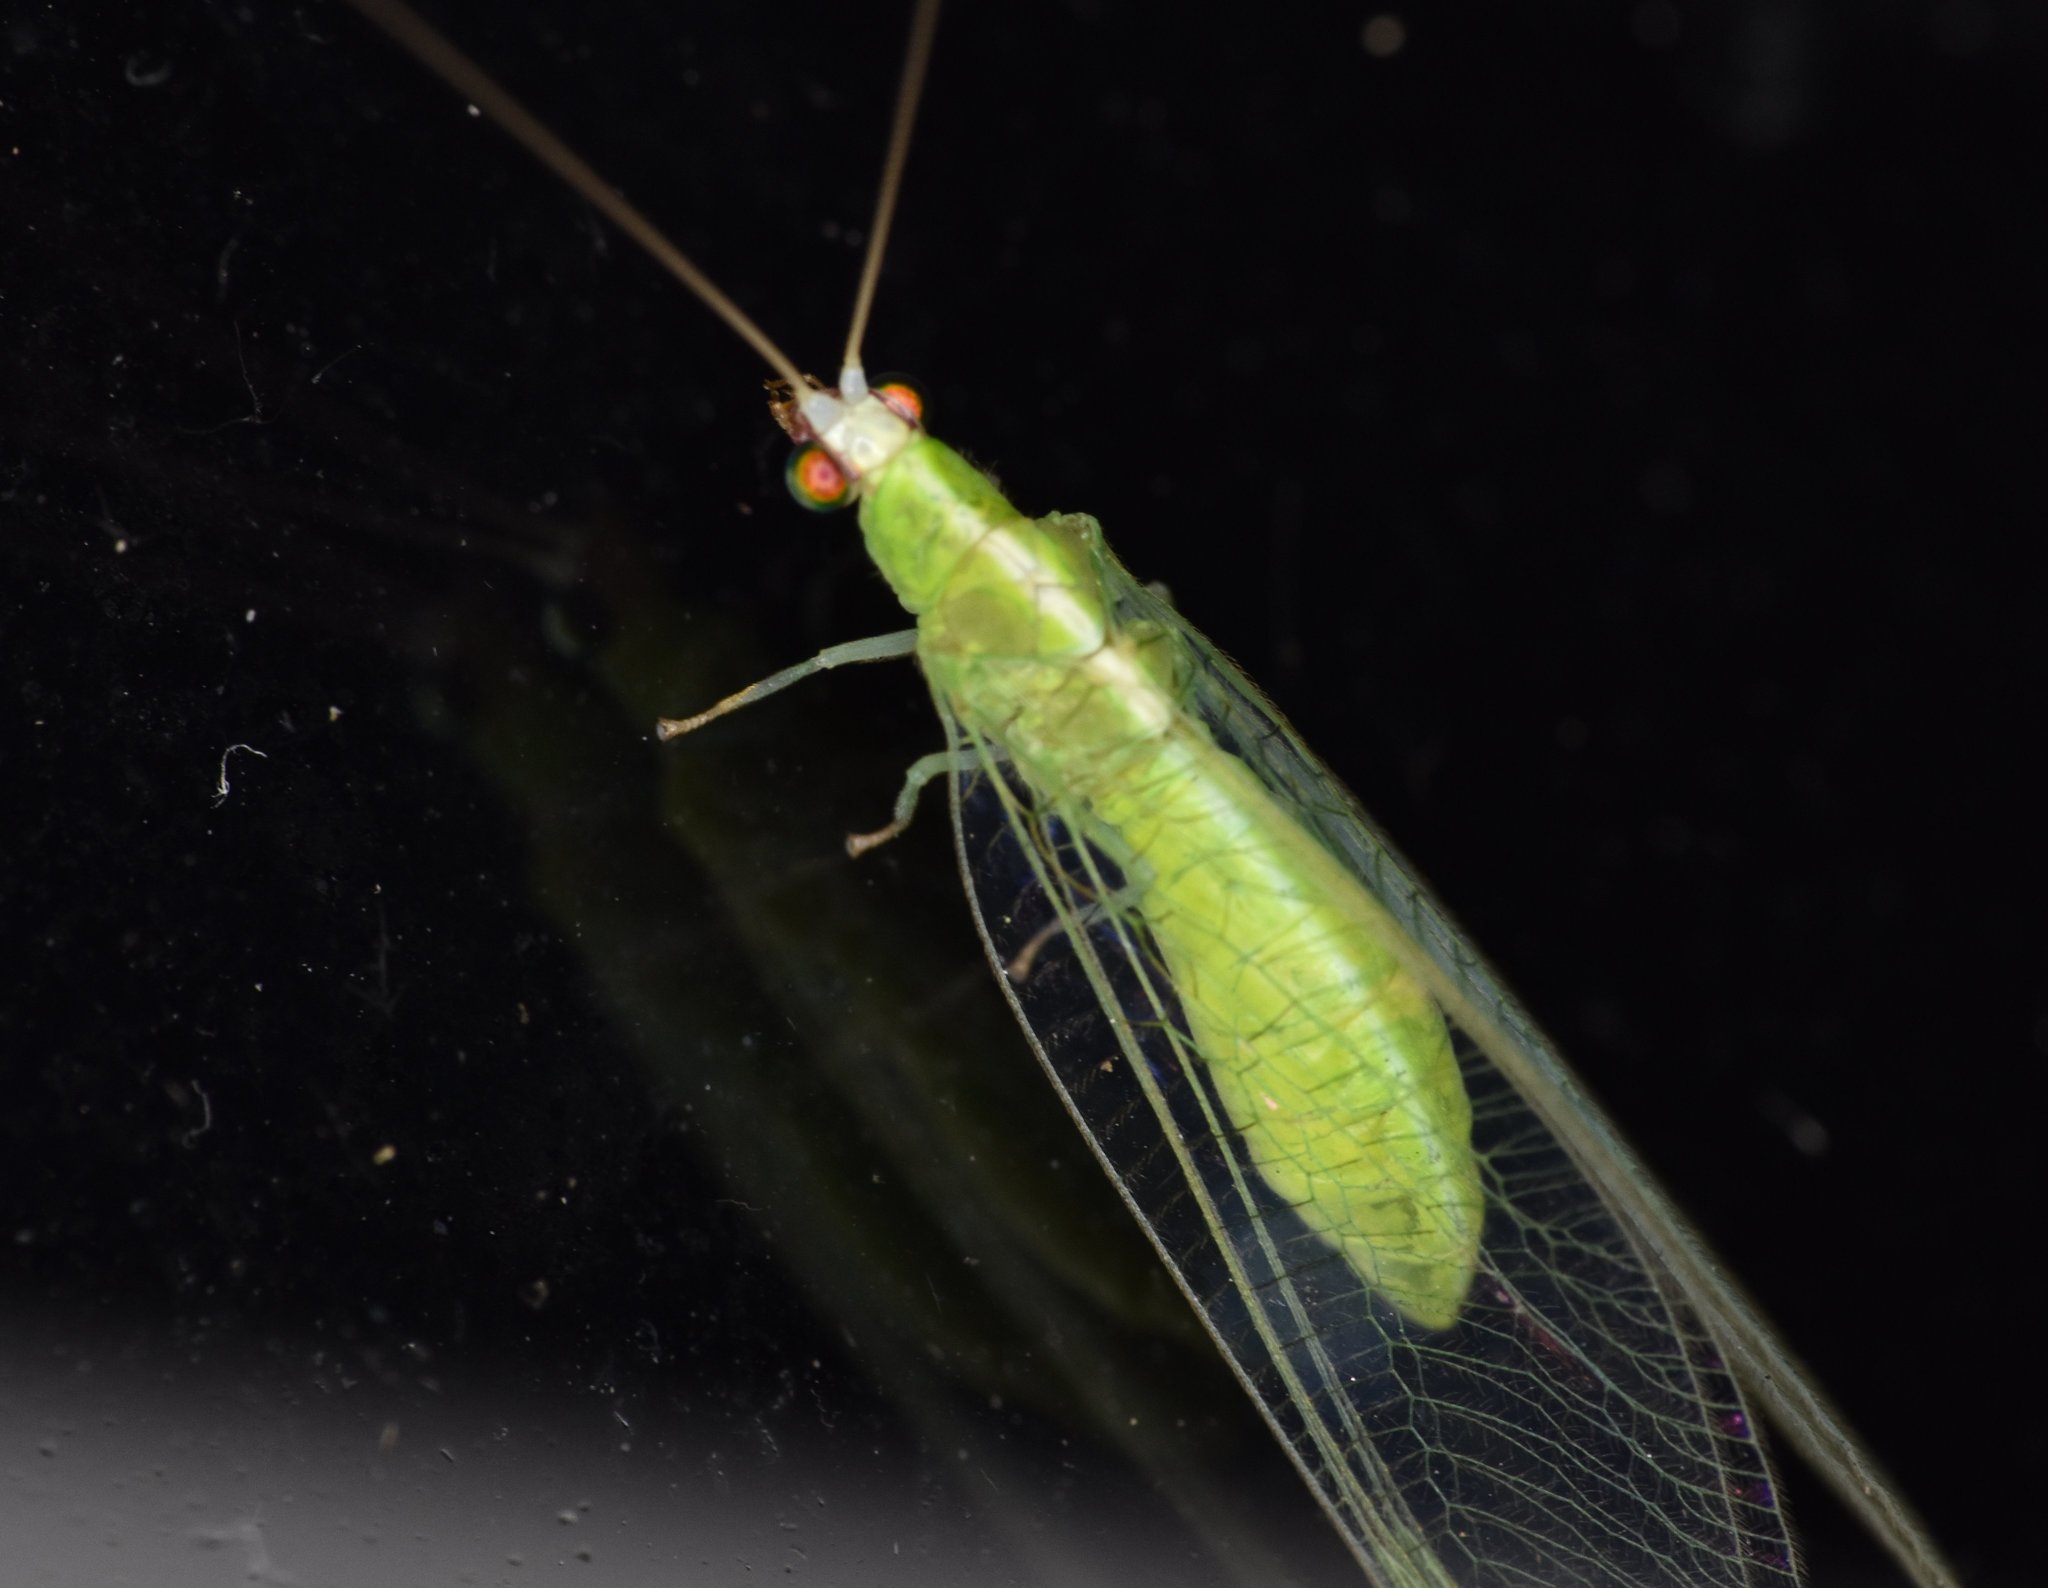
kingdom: Animalia
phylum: Arthropoda
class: Insecta
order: Neuroptera
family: Chrysopidae
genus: Chrysopodes
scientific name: Chrysopodes collaris
